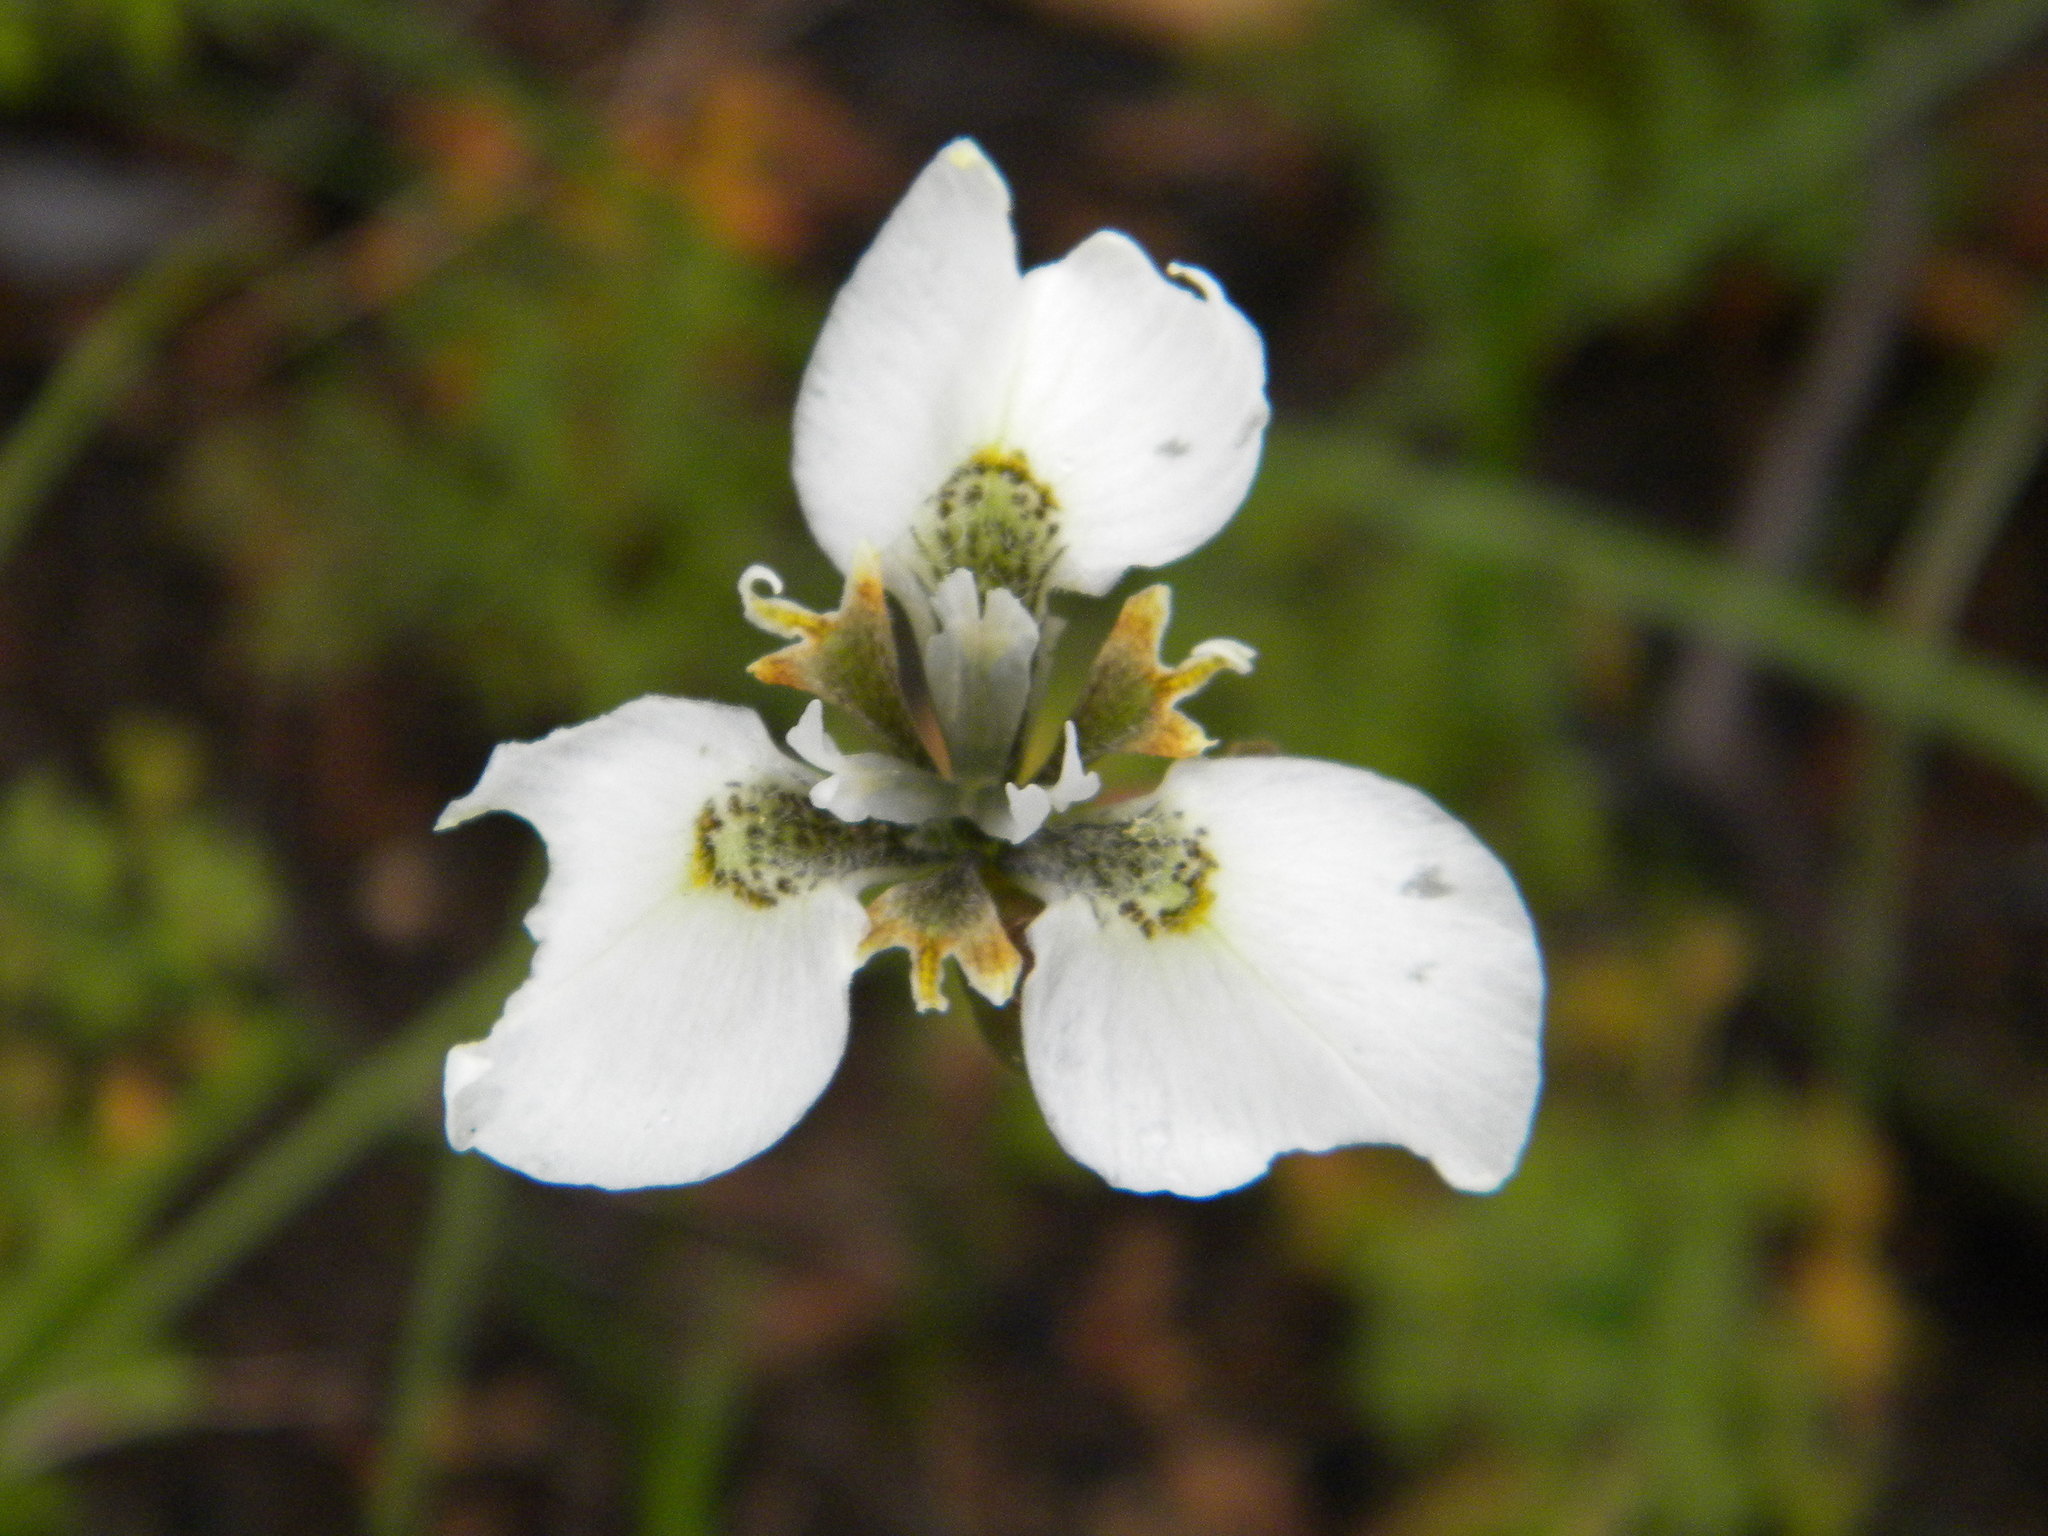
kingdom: Plantae
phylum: Tracheophyta
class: Liliopsida
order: Asparagales
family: Iridaceae
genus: Moraea
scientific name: Moraea tricuspidata
